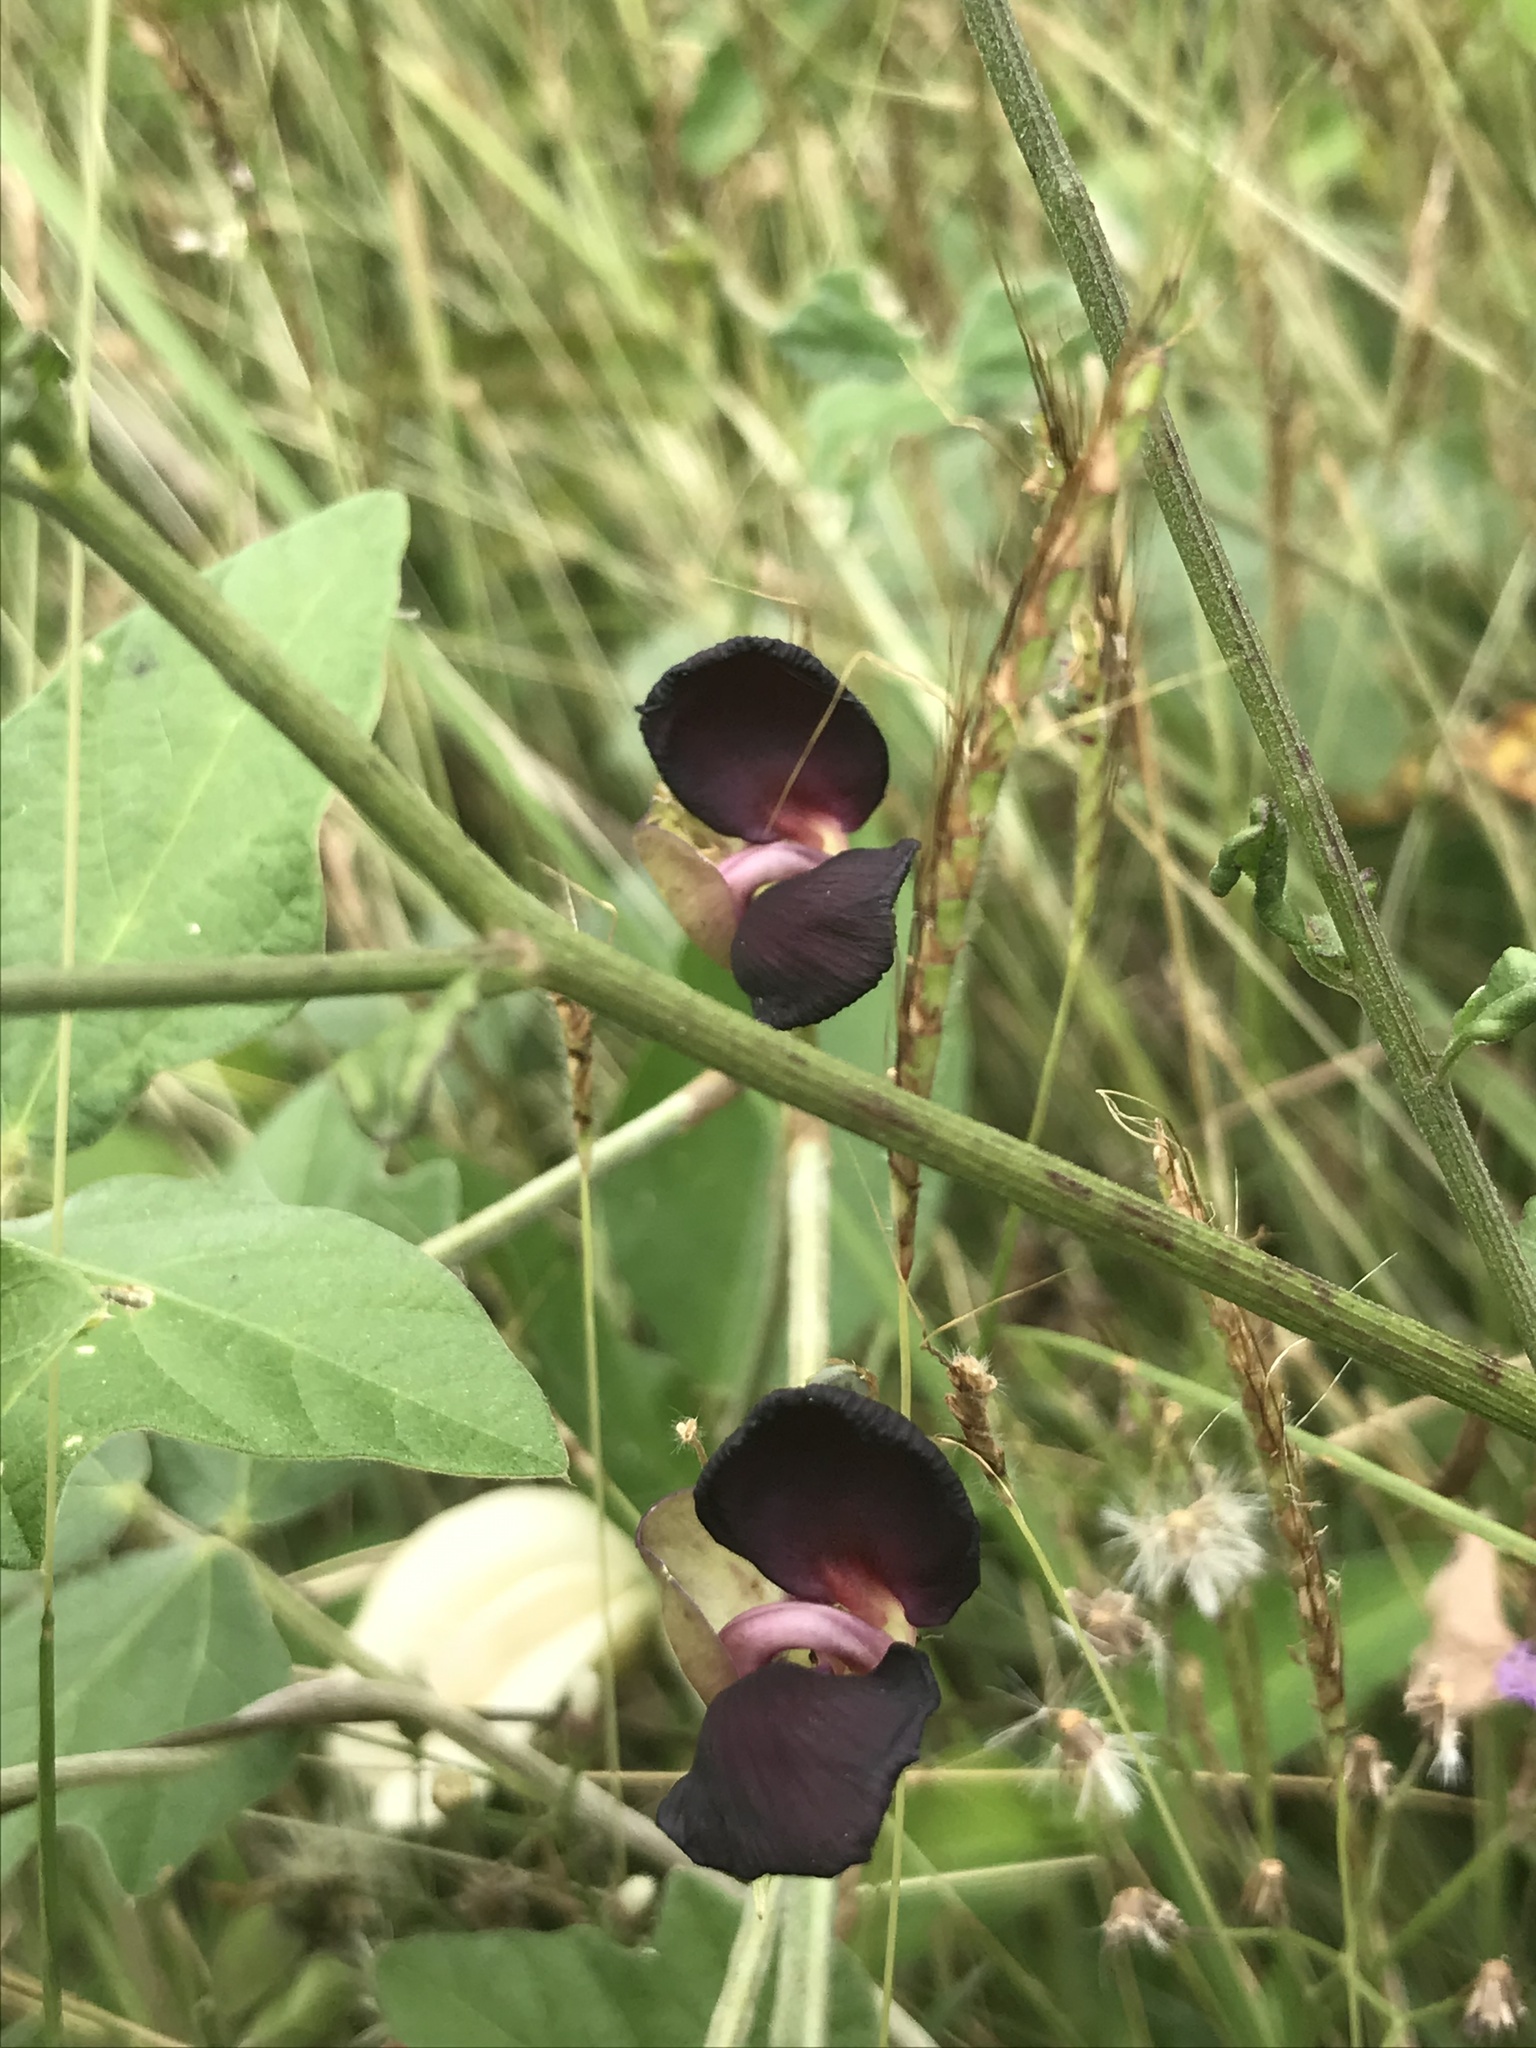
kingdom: Plantae
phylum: Tracheophyta
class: Magnoliopsida
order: Fabales
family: Fabaceae
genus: Macroptilium
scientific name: Macroptilium atropurpureum
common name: Purple bushbean
